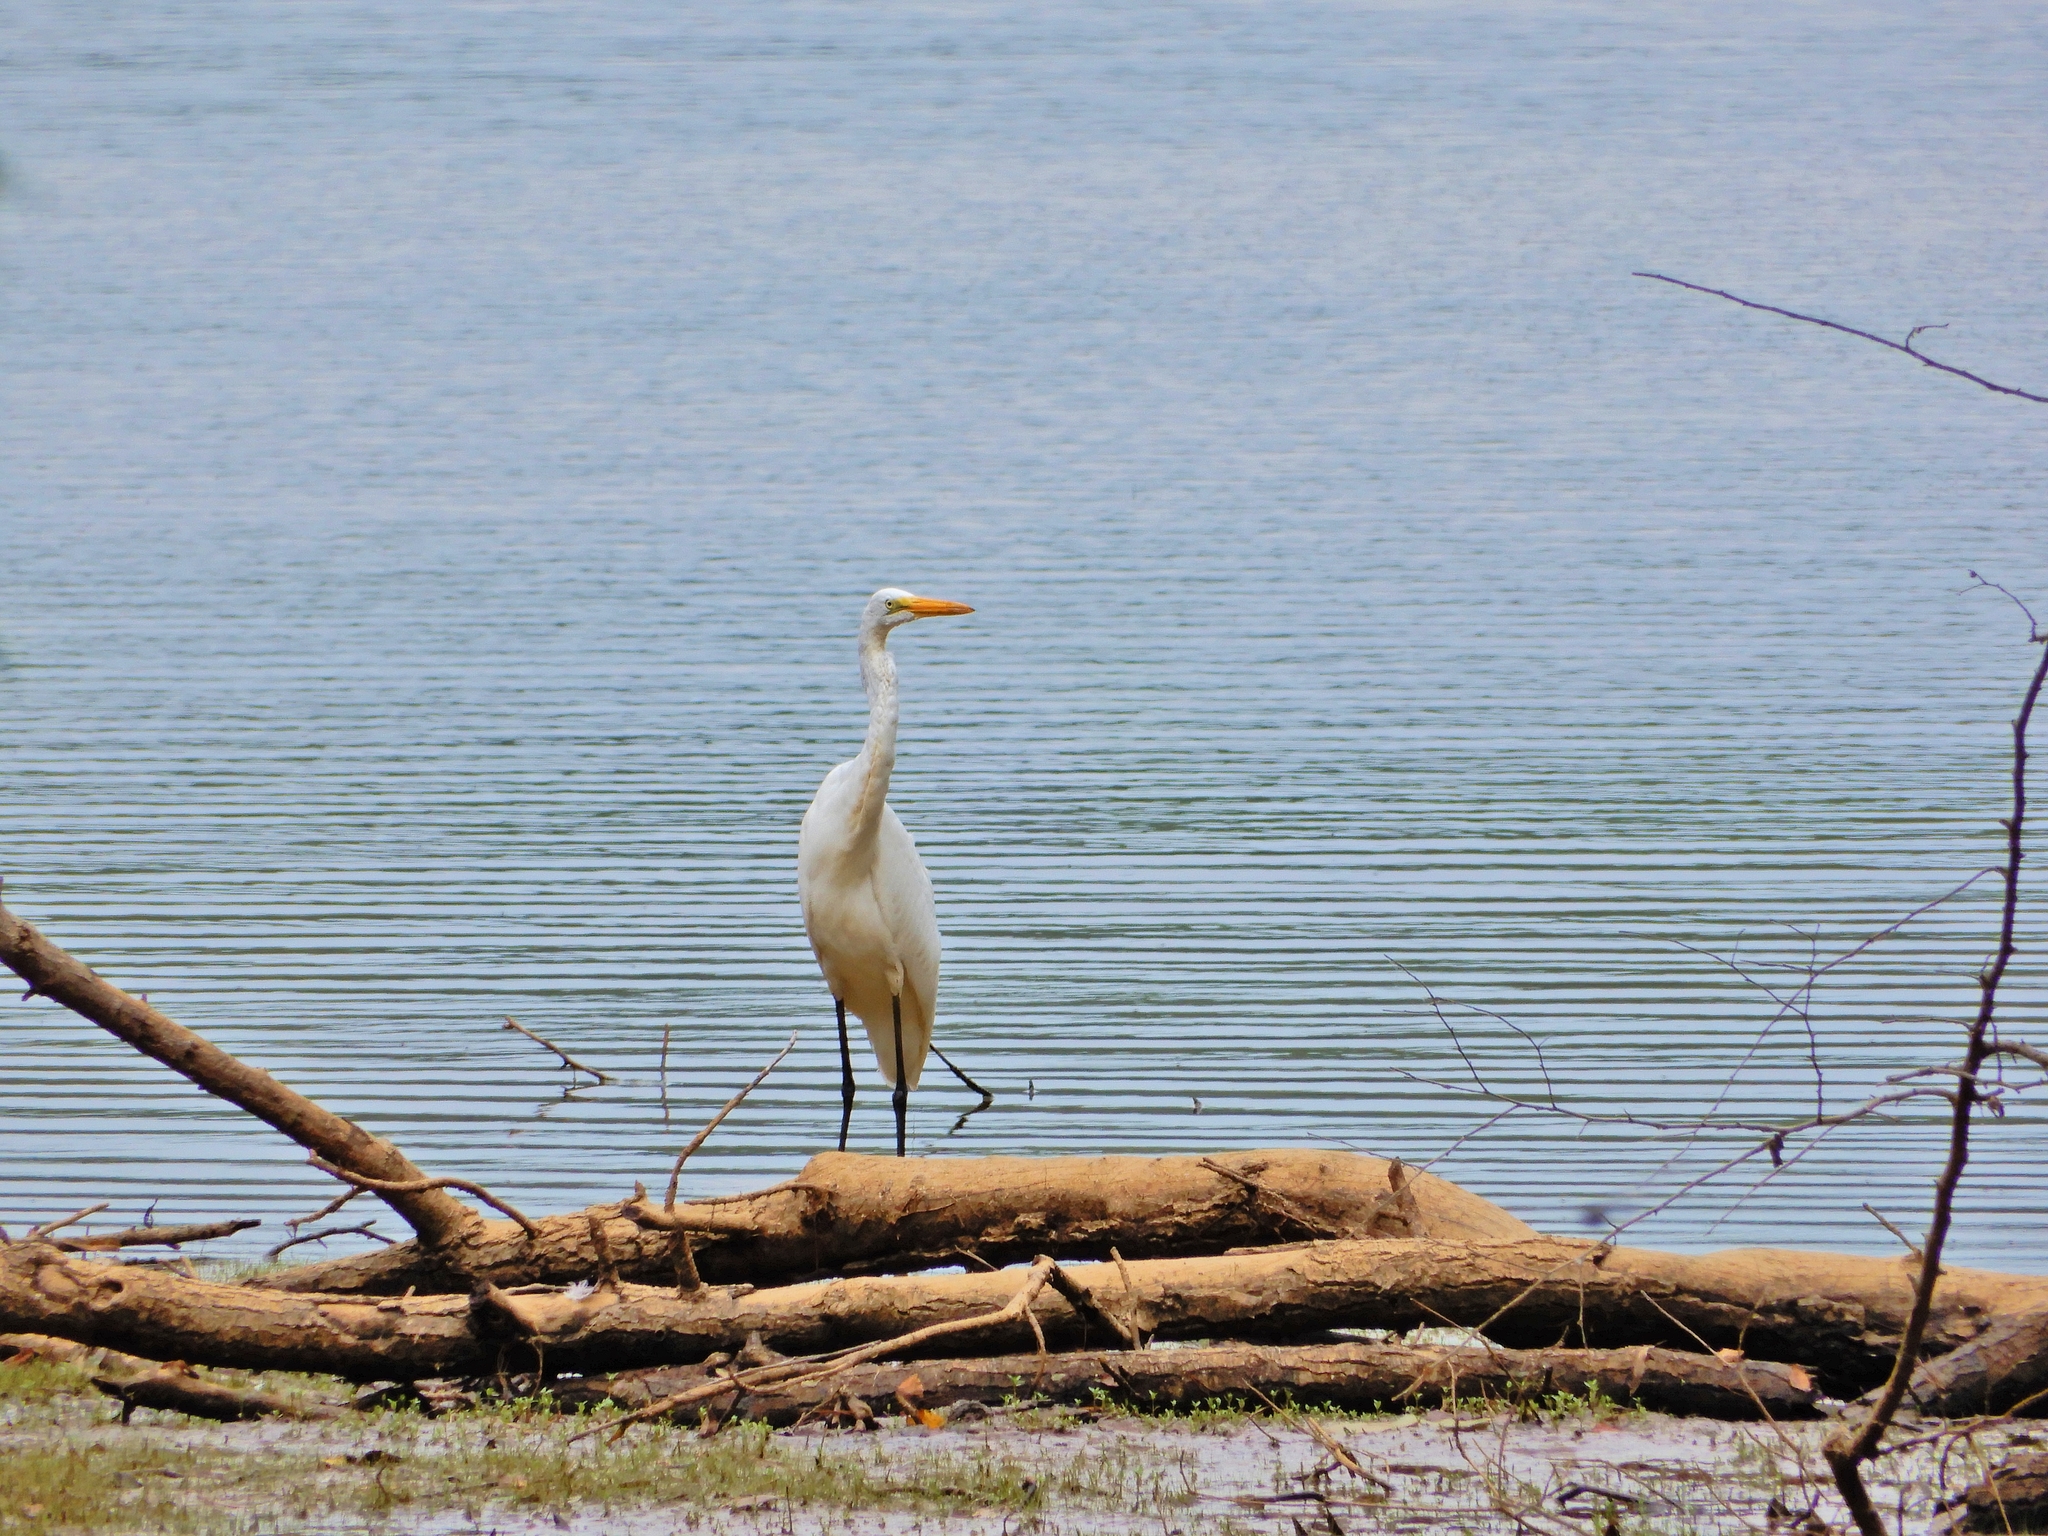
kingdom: Animalia
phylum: Chordata
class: Aves
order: Pelecaniformes
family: Ardeidae
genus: Ardea
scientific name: Ardea alba
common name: Great egret
